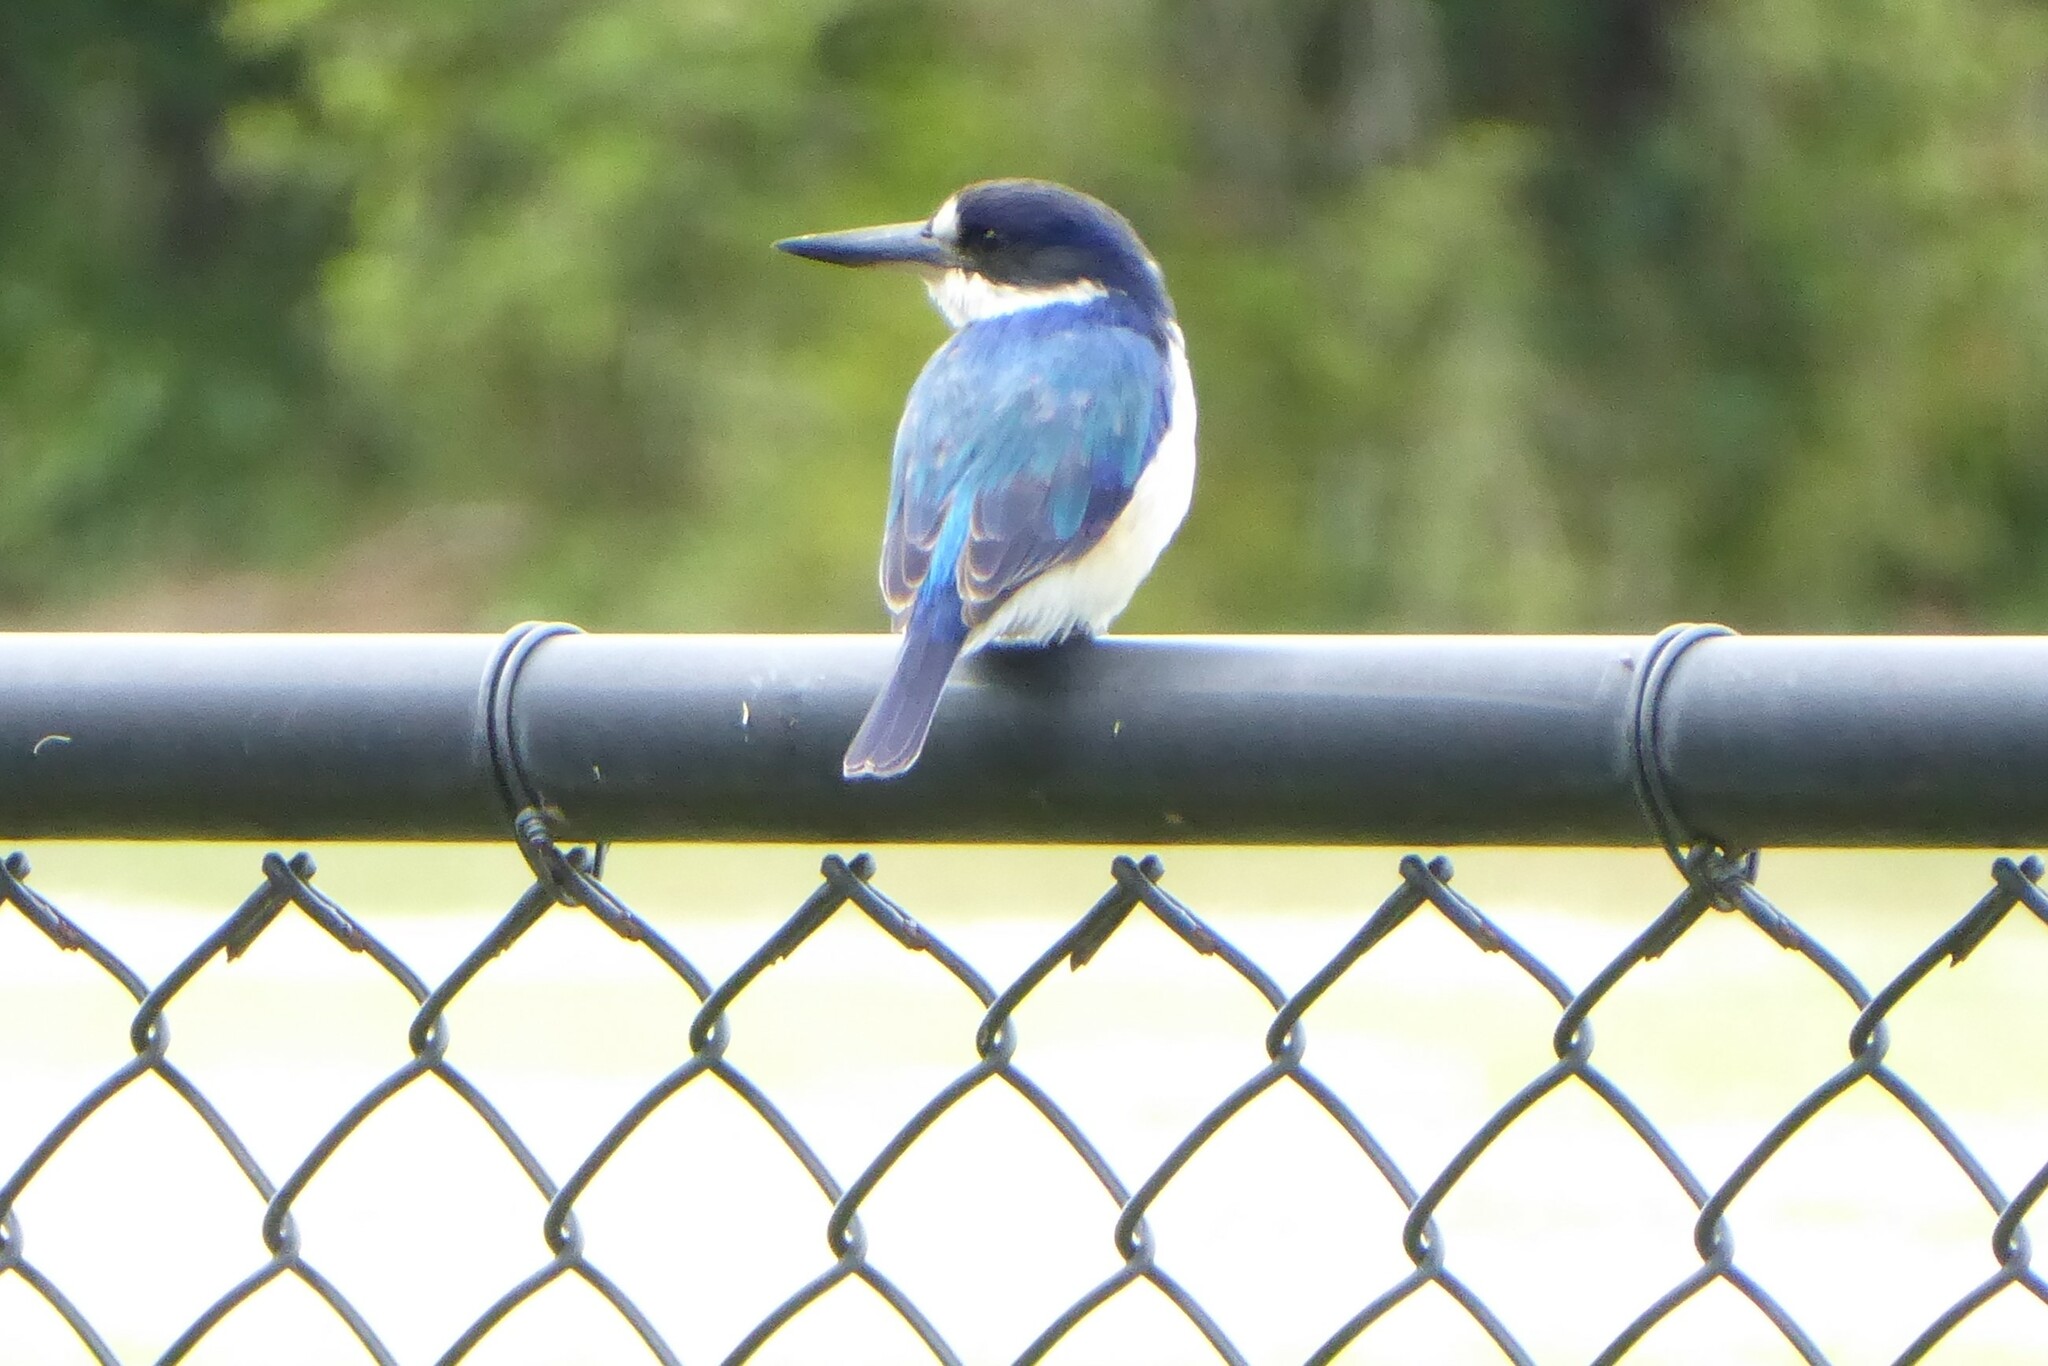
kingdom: Animalia
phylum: Chordata
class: Aves
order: Coraciiformes
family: Alcedinidae
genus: Todiramphus
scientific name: Todiramphus macleayii
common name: Forest kingfisher
